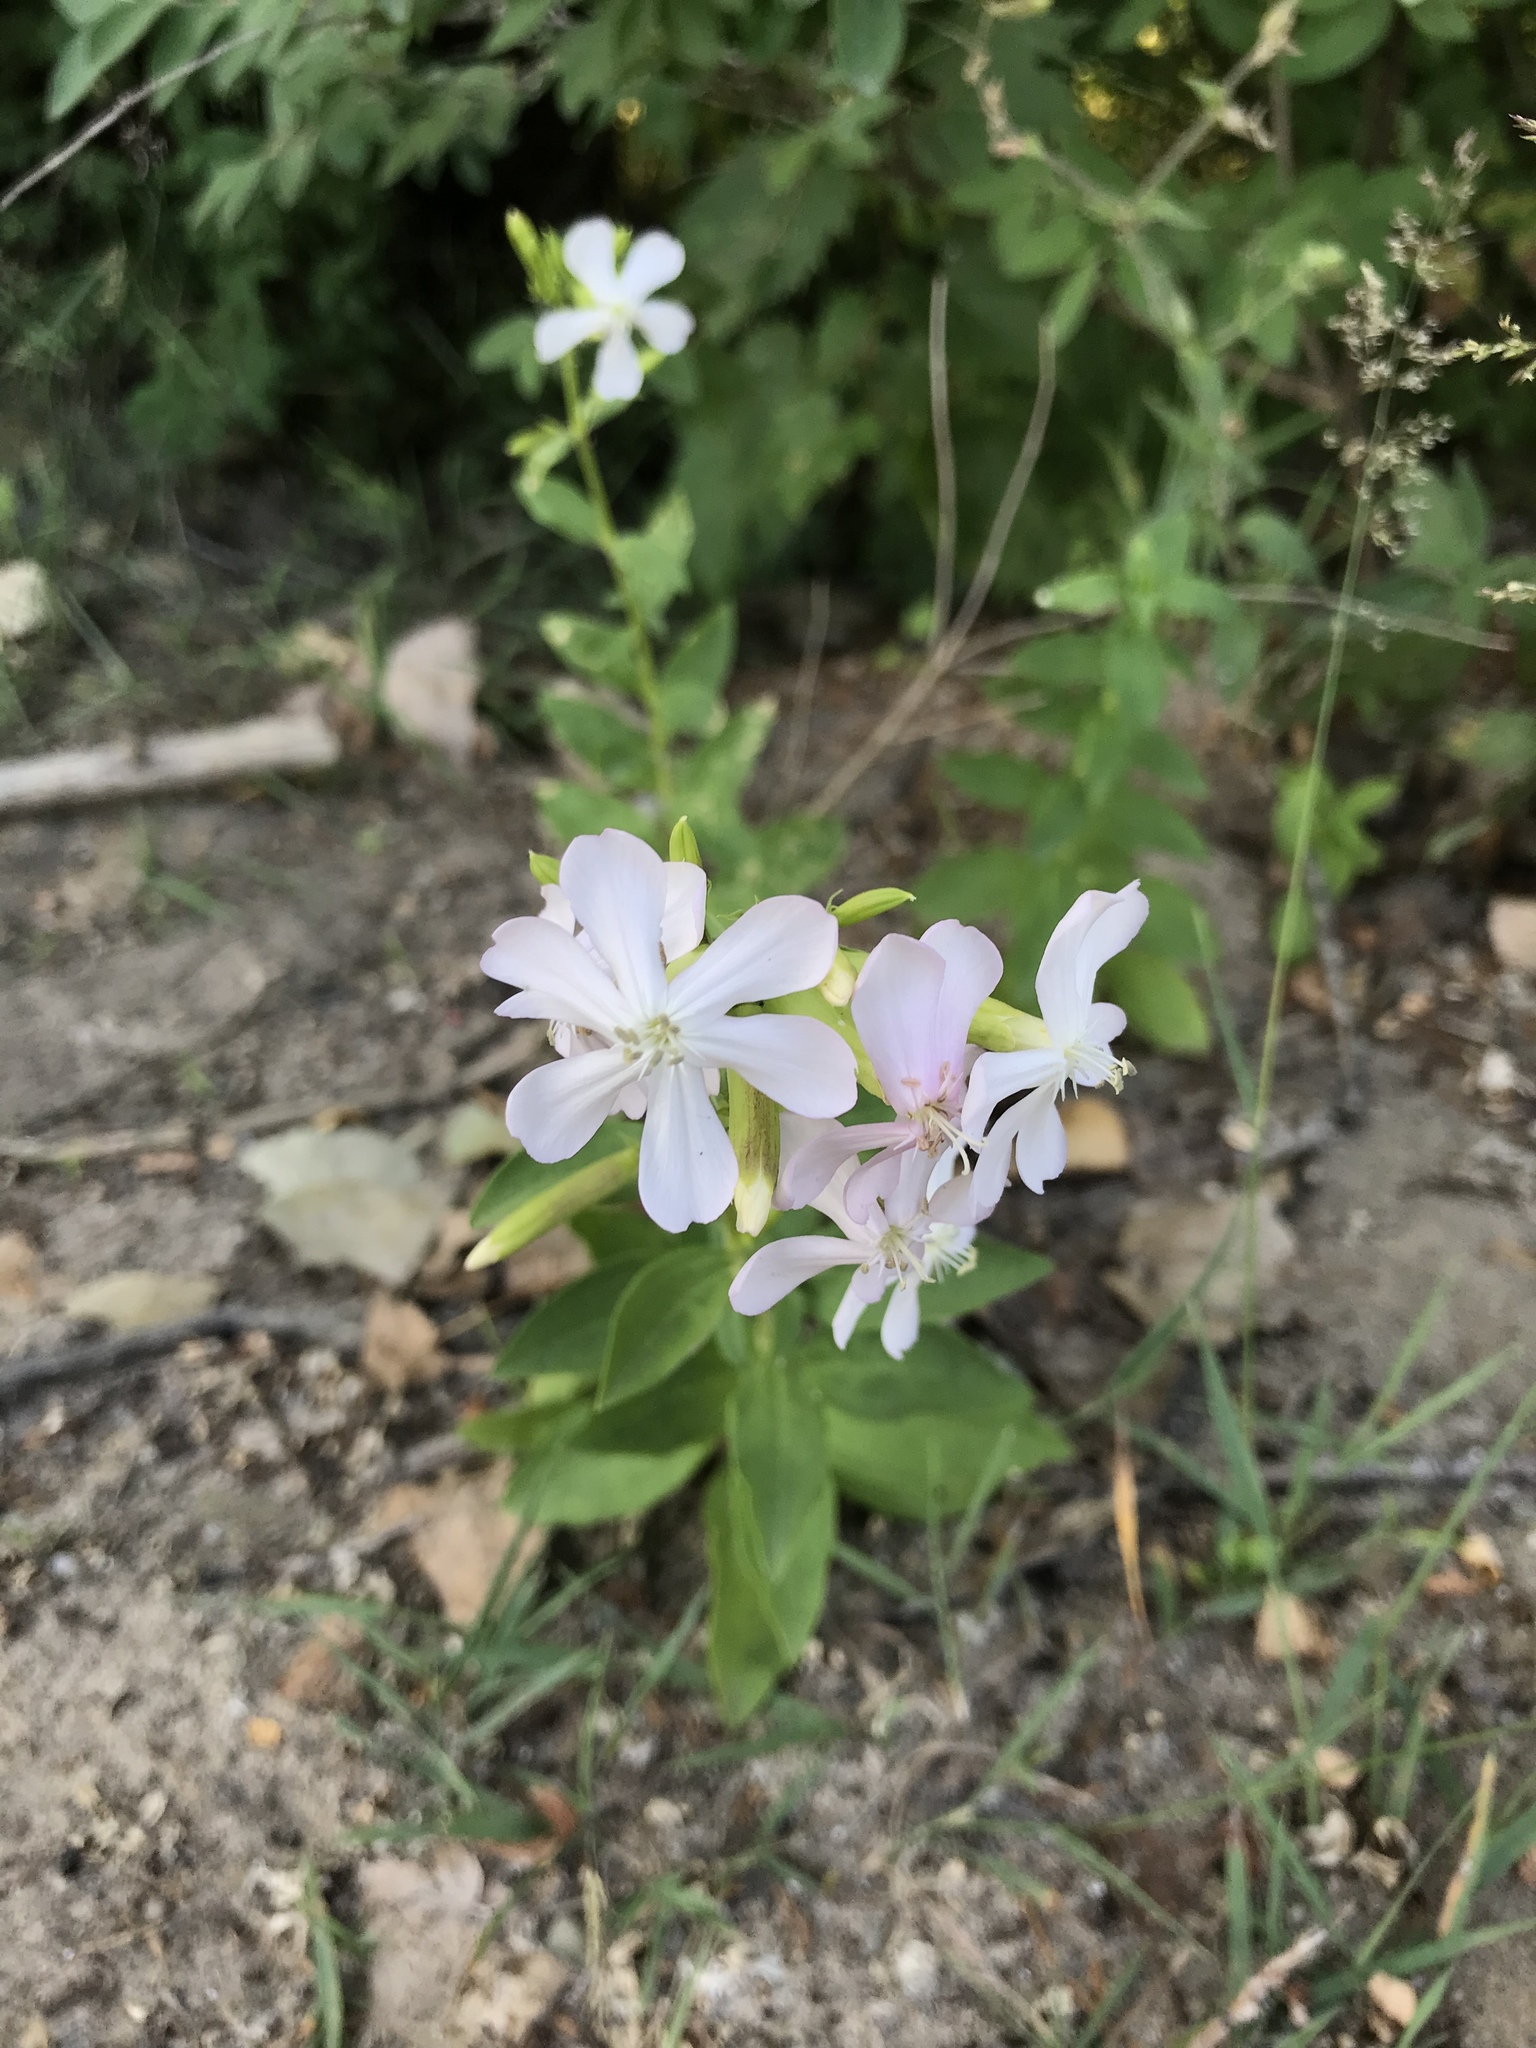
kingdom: Plantae
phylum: Tracheophyta
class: Magnoliopsida
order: Caryophyllales
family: Caryophyllaceae
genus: Saponaria
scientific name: Saponaria officinalis
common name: Soapwort
